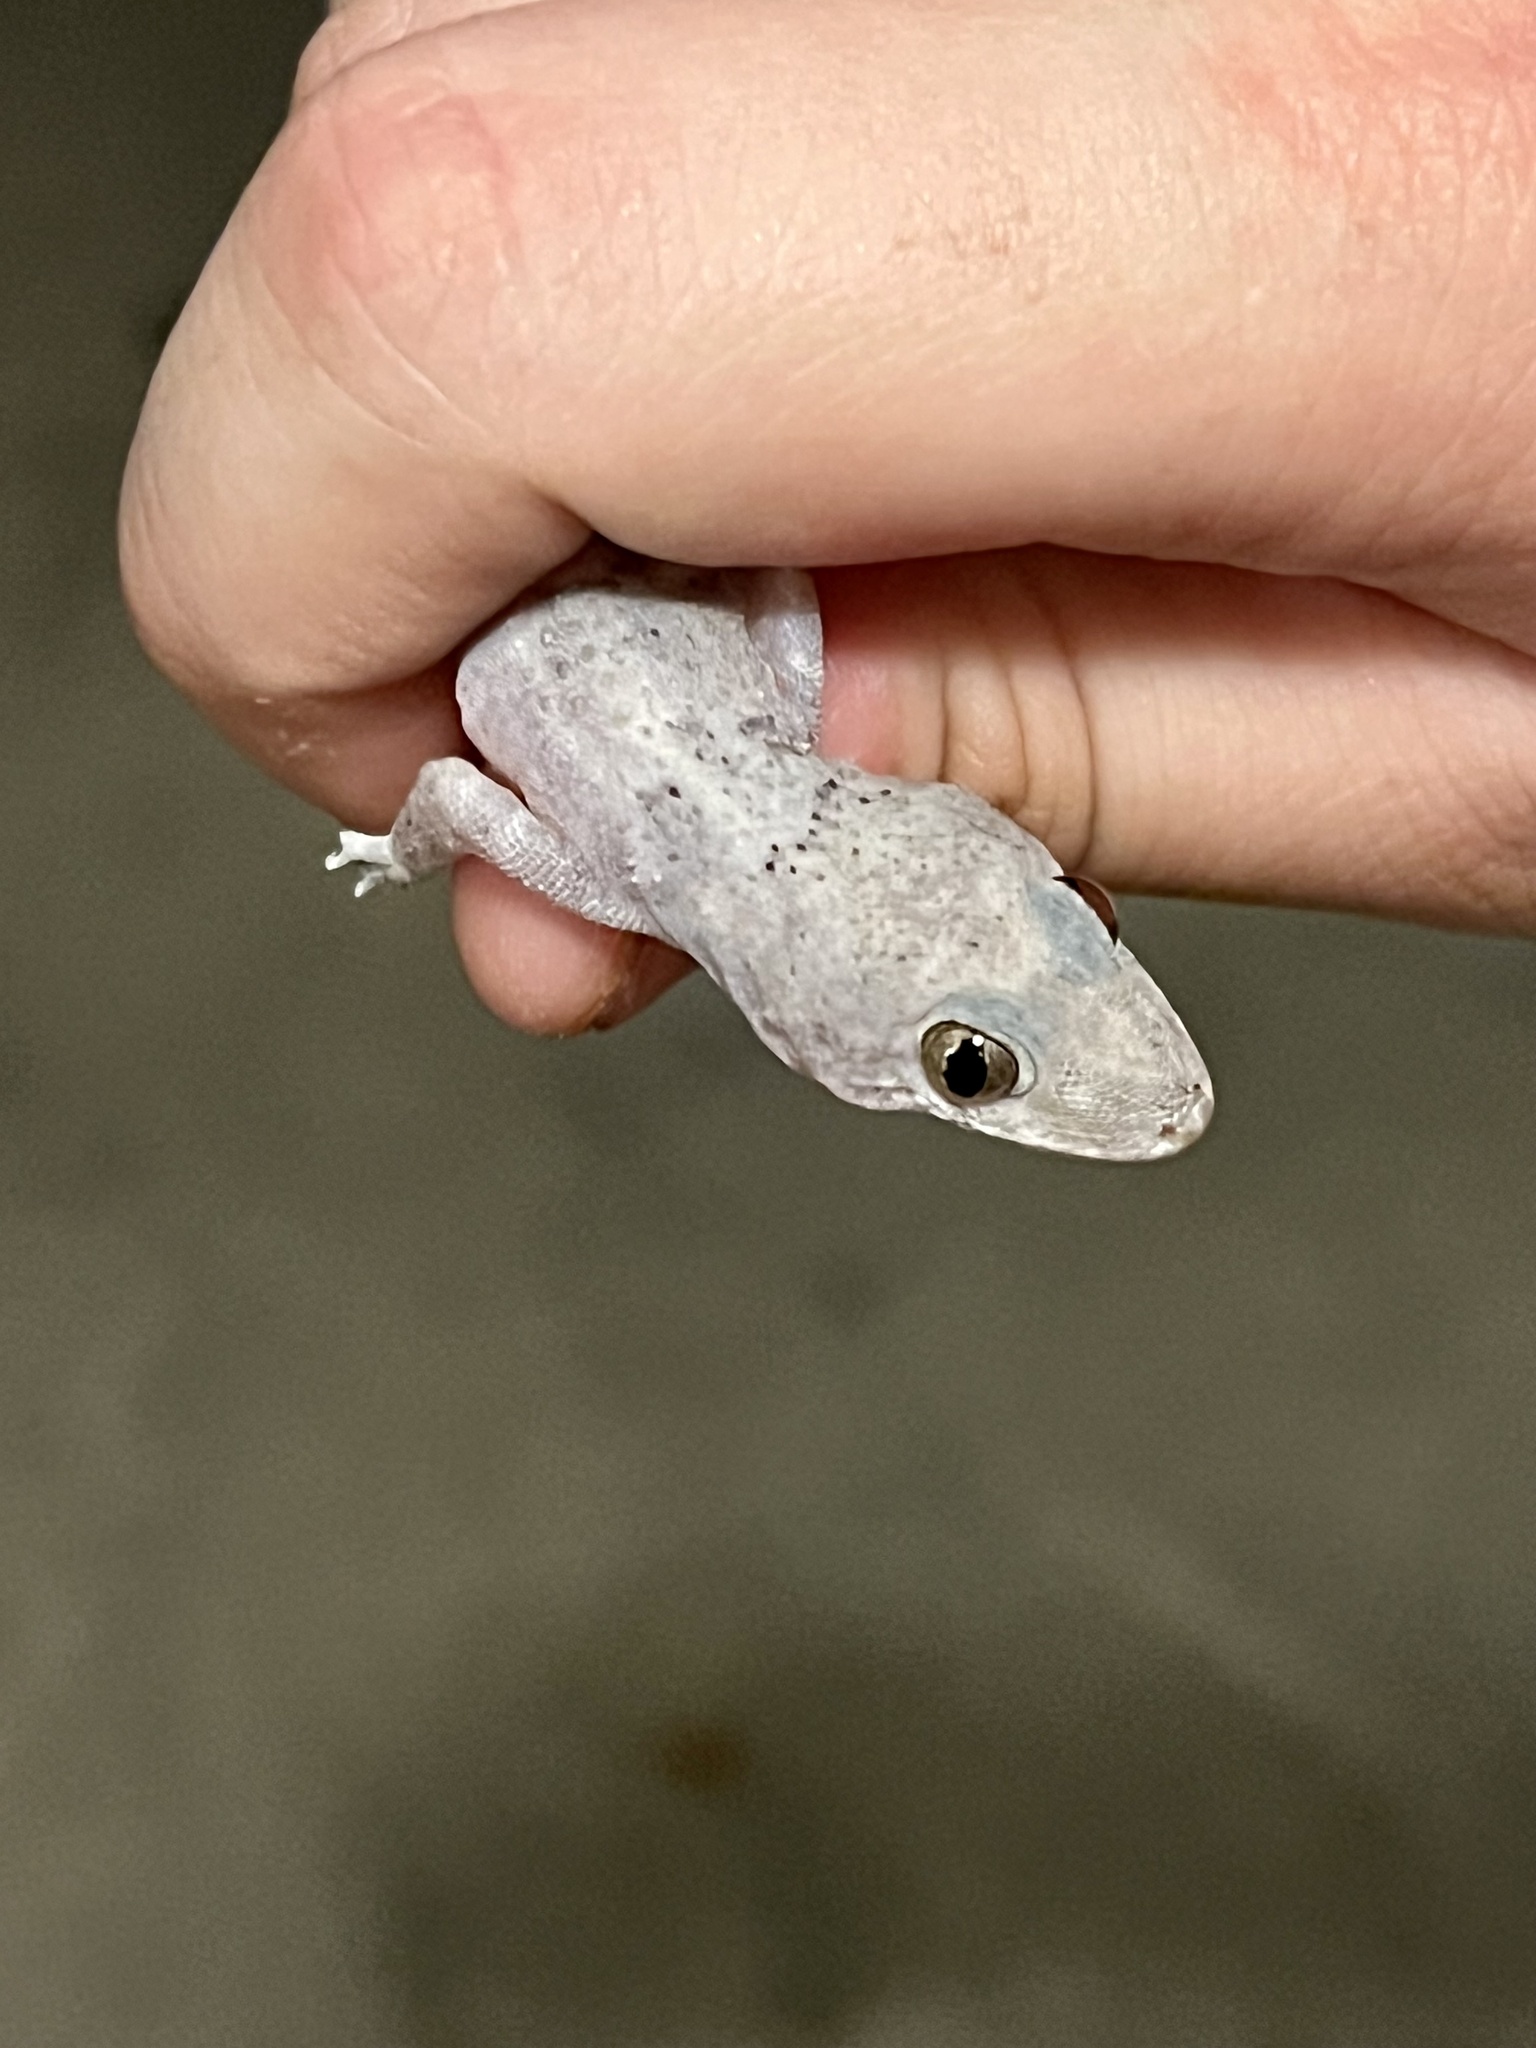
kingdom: Animalia
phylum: Chordata
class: Squamata
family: Gekkonidae
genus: Hemidactylus
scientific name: Hemidactylus mabouia
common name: House gecko
